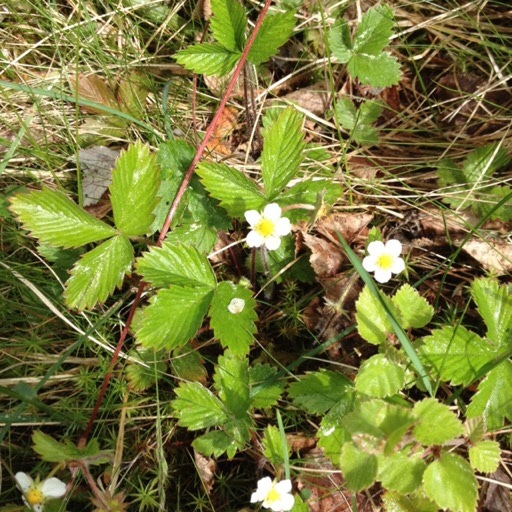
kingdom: Plantae
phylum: Tracheophyta
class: Magnoliopsida
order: Rosales
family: Rosaceae
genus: Fragaria
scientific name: Fragaria vesca
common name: Wild strawberry
